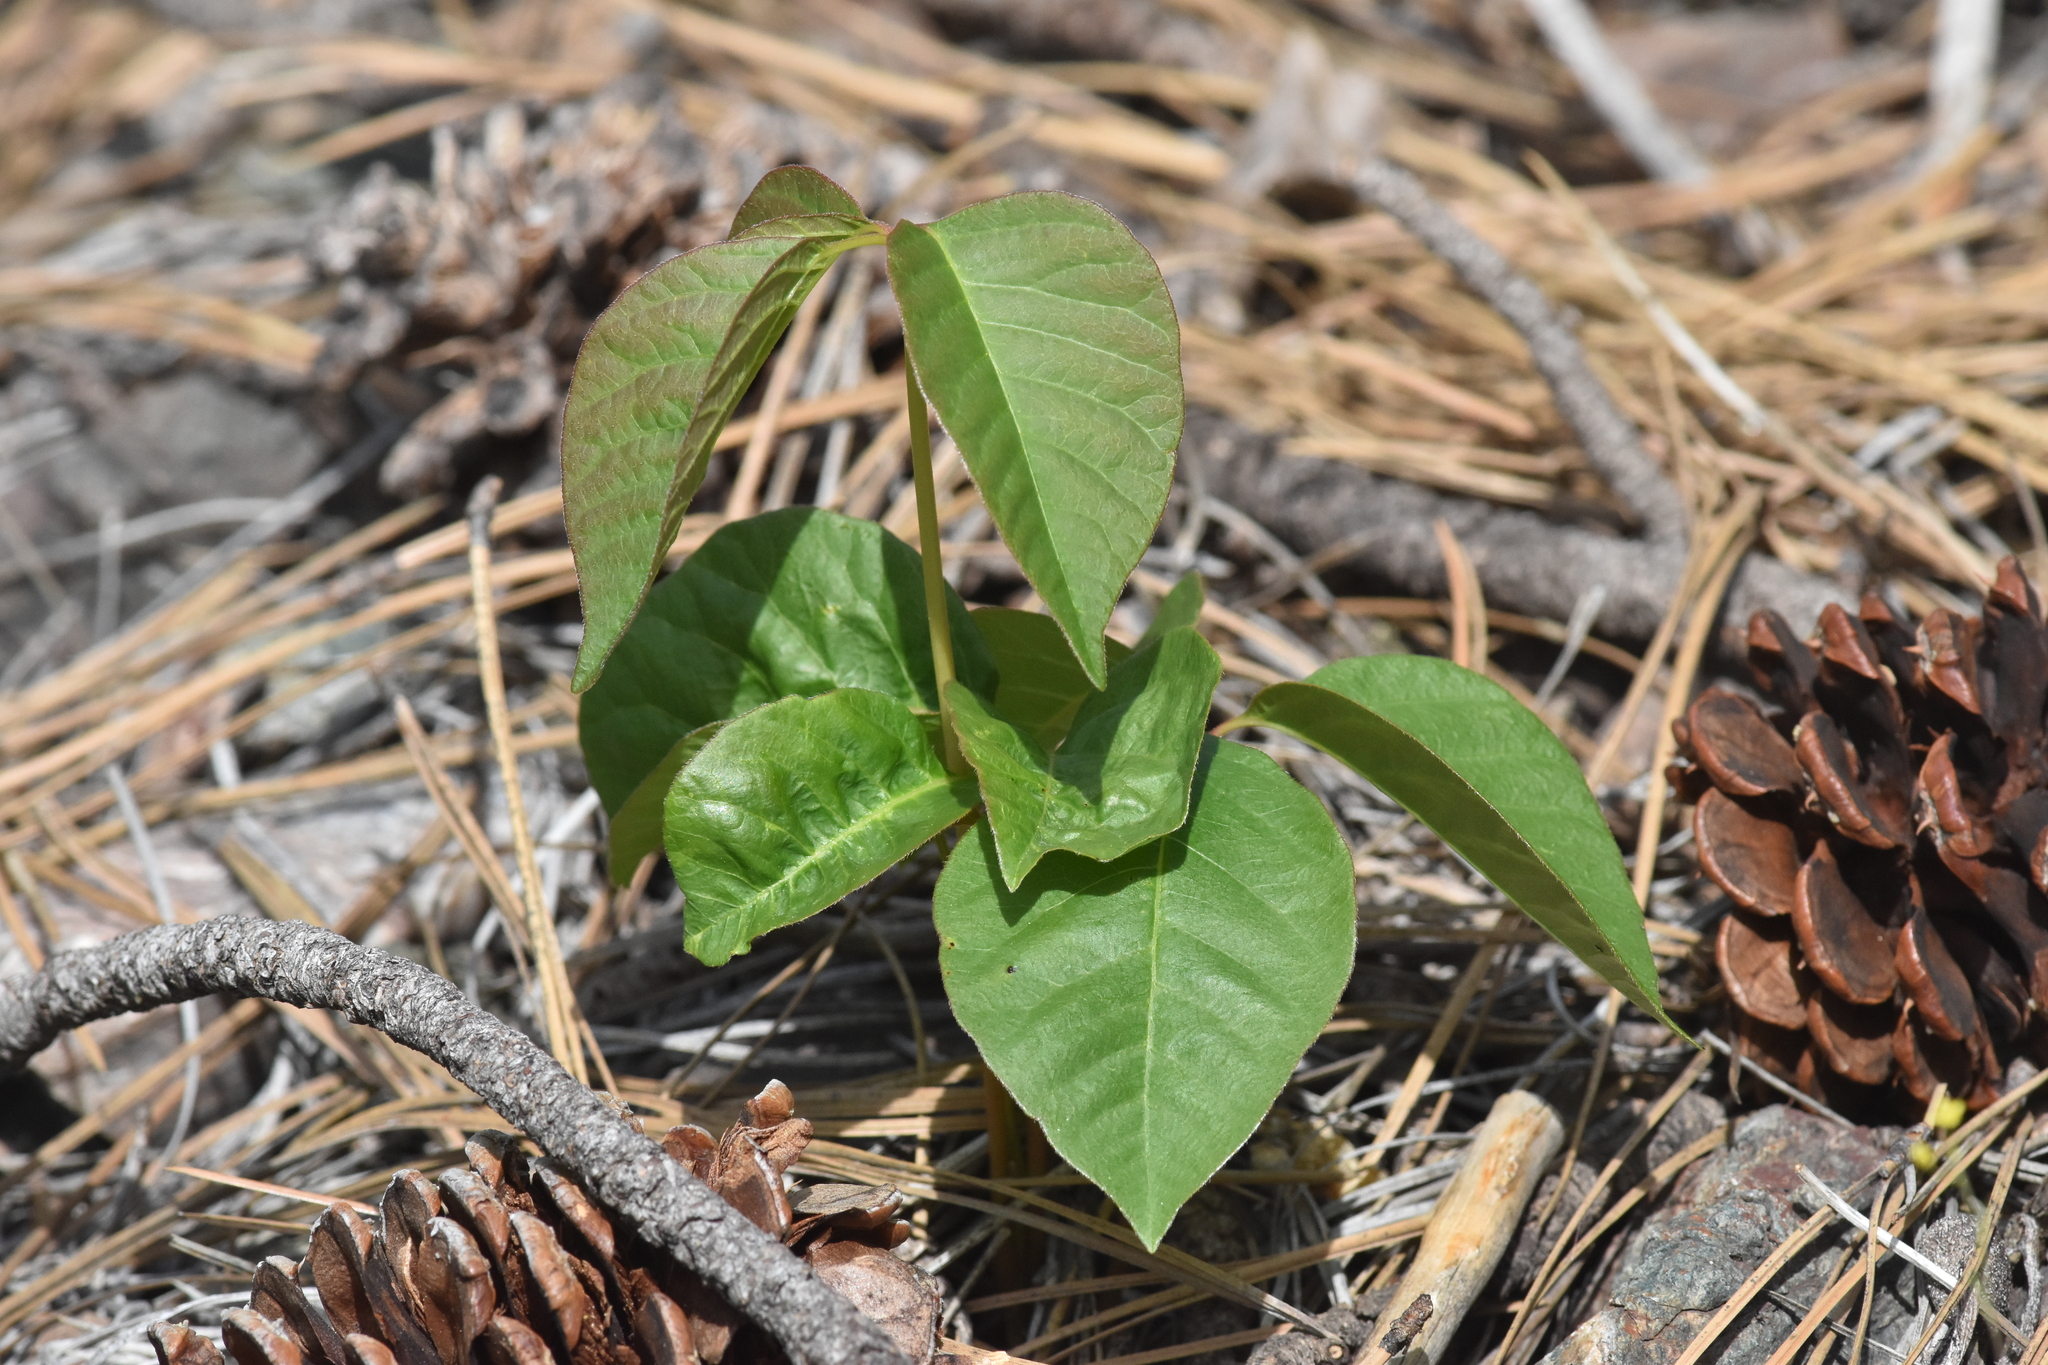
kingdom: Plantae
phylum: Tracheophyta
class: Magnoliopsida
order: Sapindales
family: Anacardiaceae
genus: Toxicodendron
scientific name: Toxicodendron rydbergii
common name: Rydberg's poison-ivy
